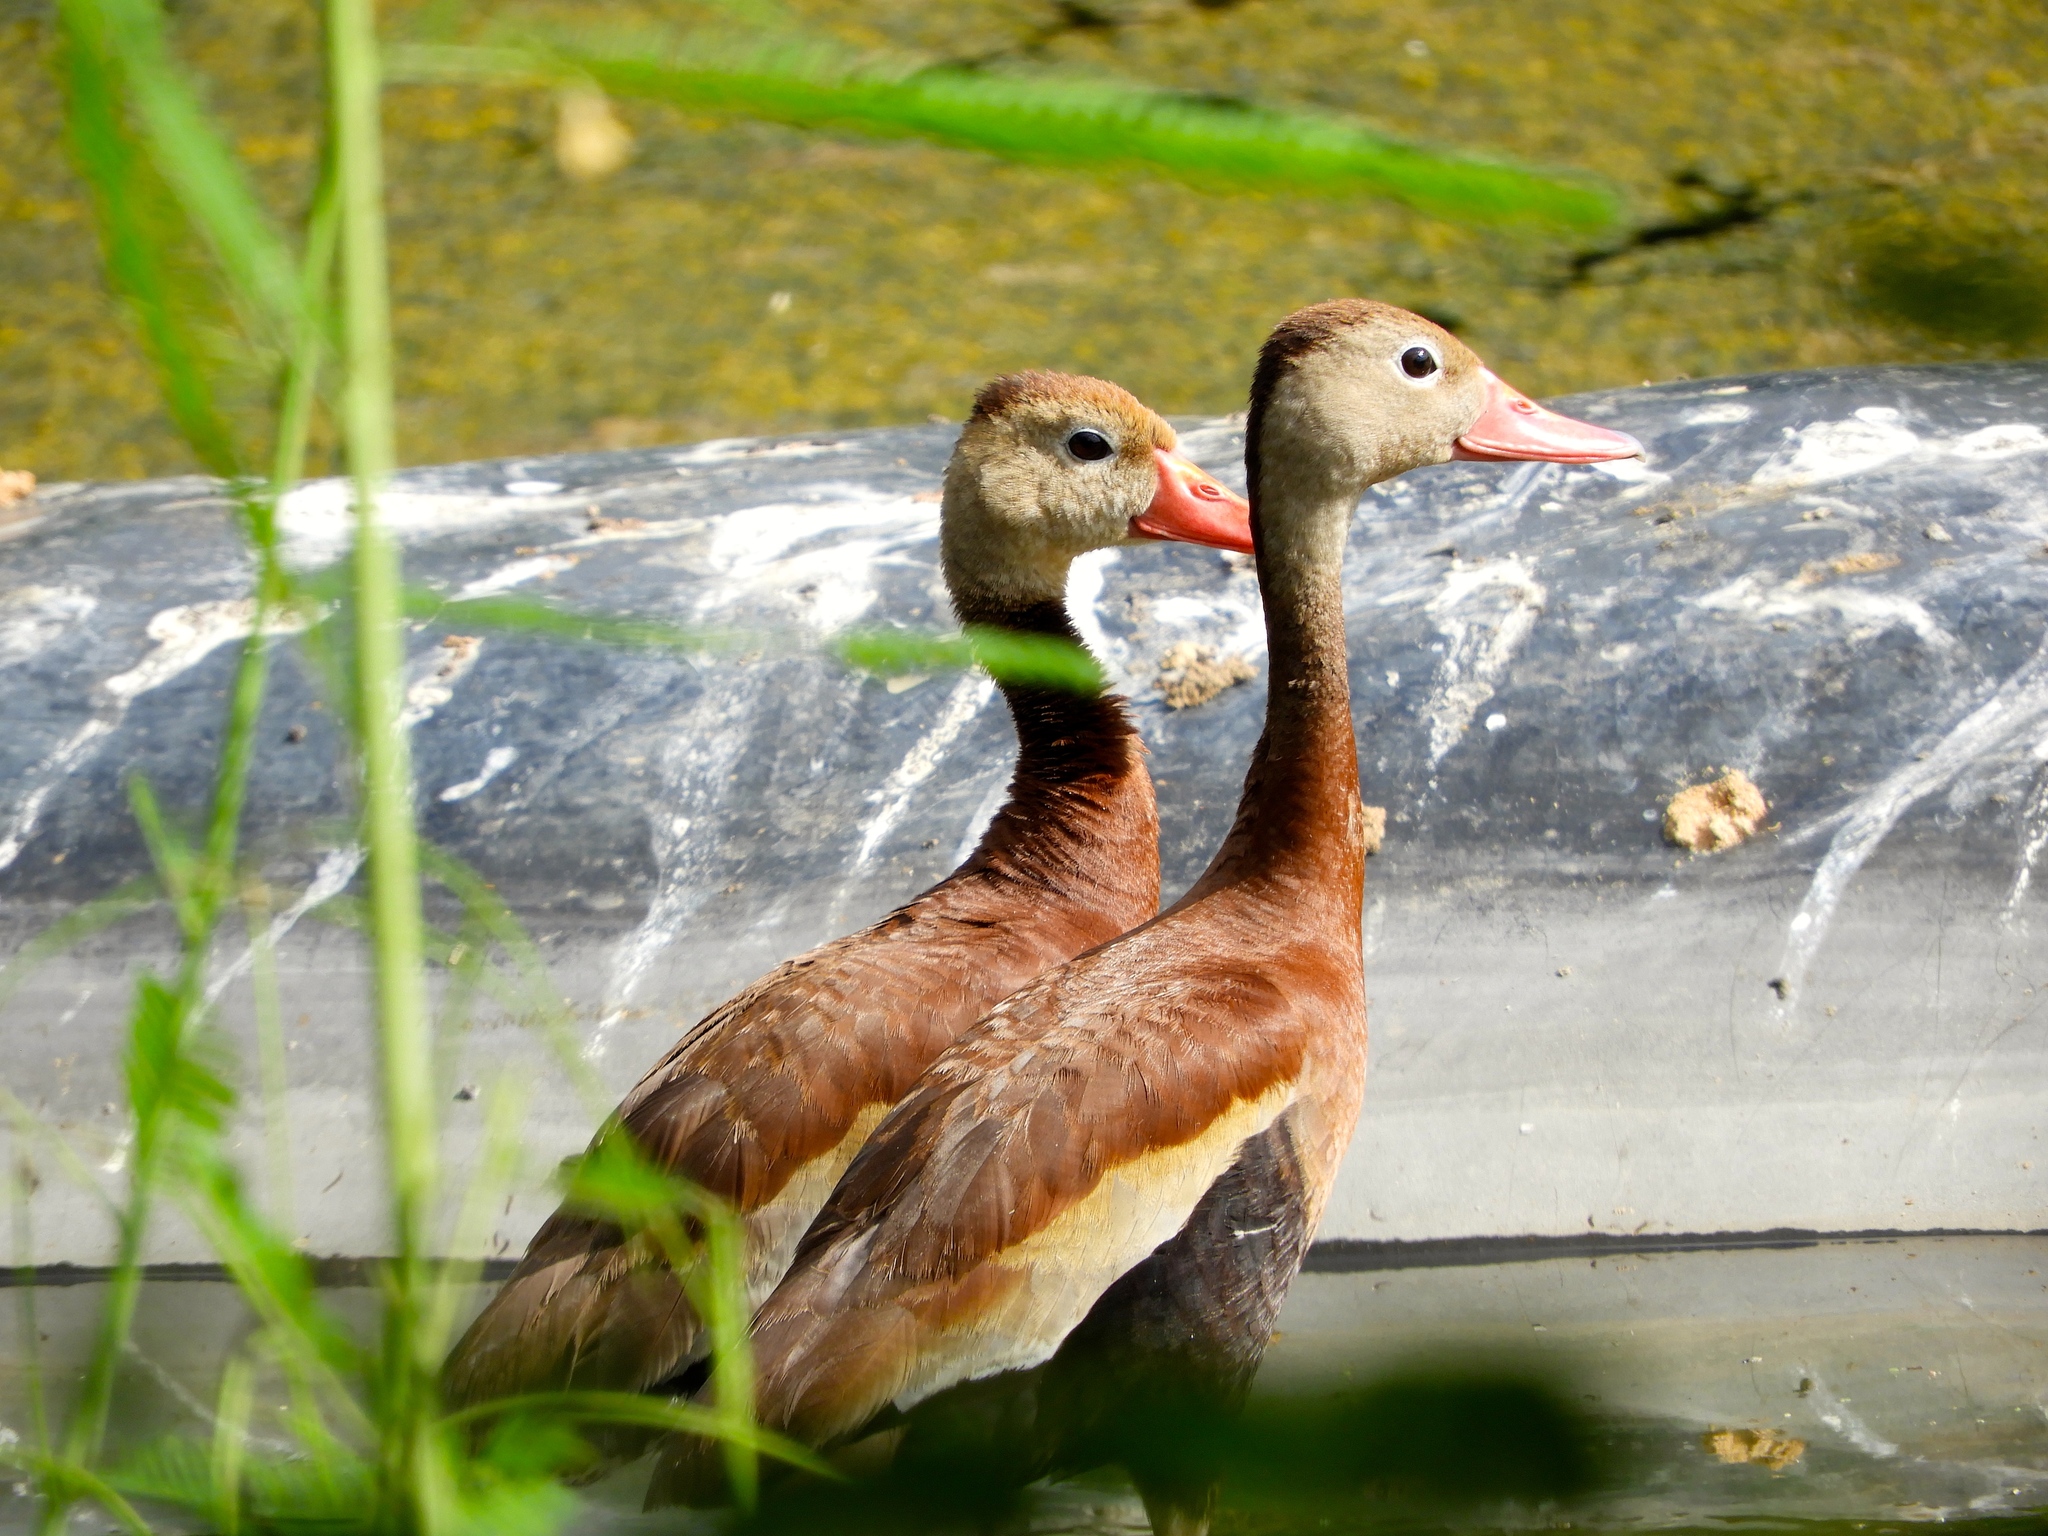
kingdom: Animalia
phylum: Chordata
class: Aves
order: Anseriformes
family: Anatidae
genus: Dendrocygna
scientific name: Dendrocygna autumnalis
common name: Black-bellied whistling duck
